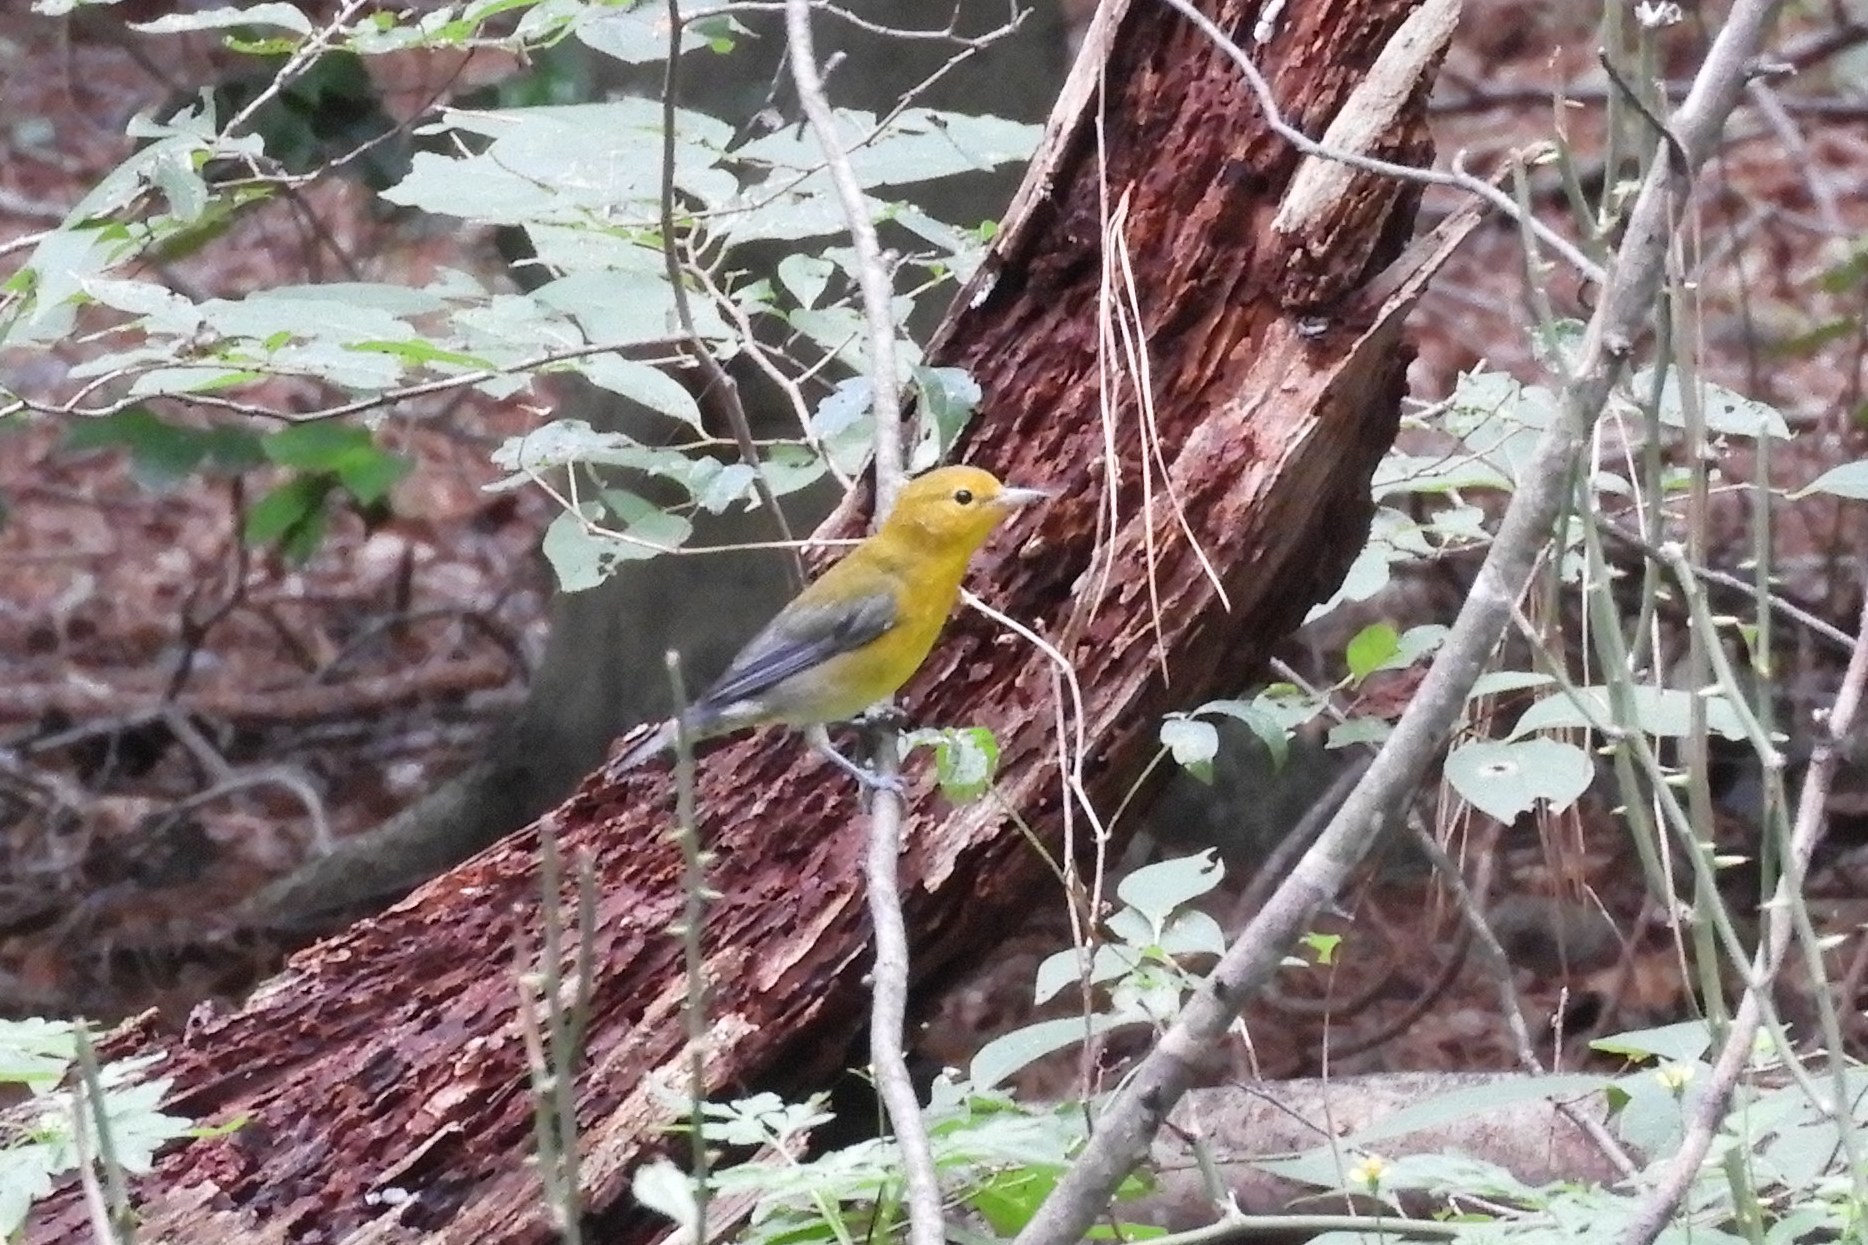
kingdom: Animalia
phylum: Chordata
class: Aves
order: Passeriformes
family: Parulidae
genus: Protonotaria
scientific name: Protonotaria citrea
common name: Prothonotary warbler
